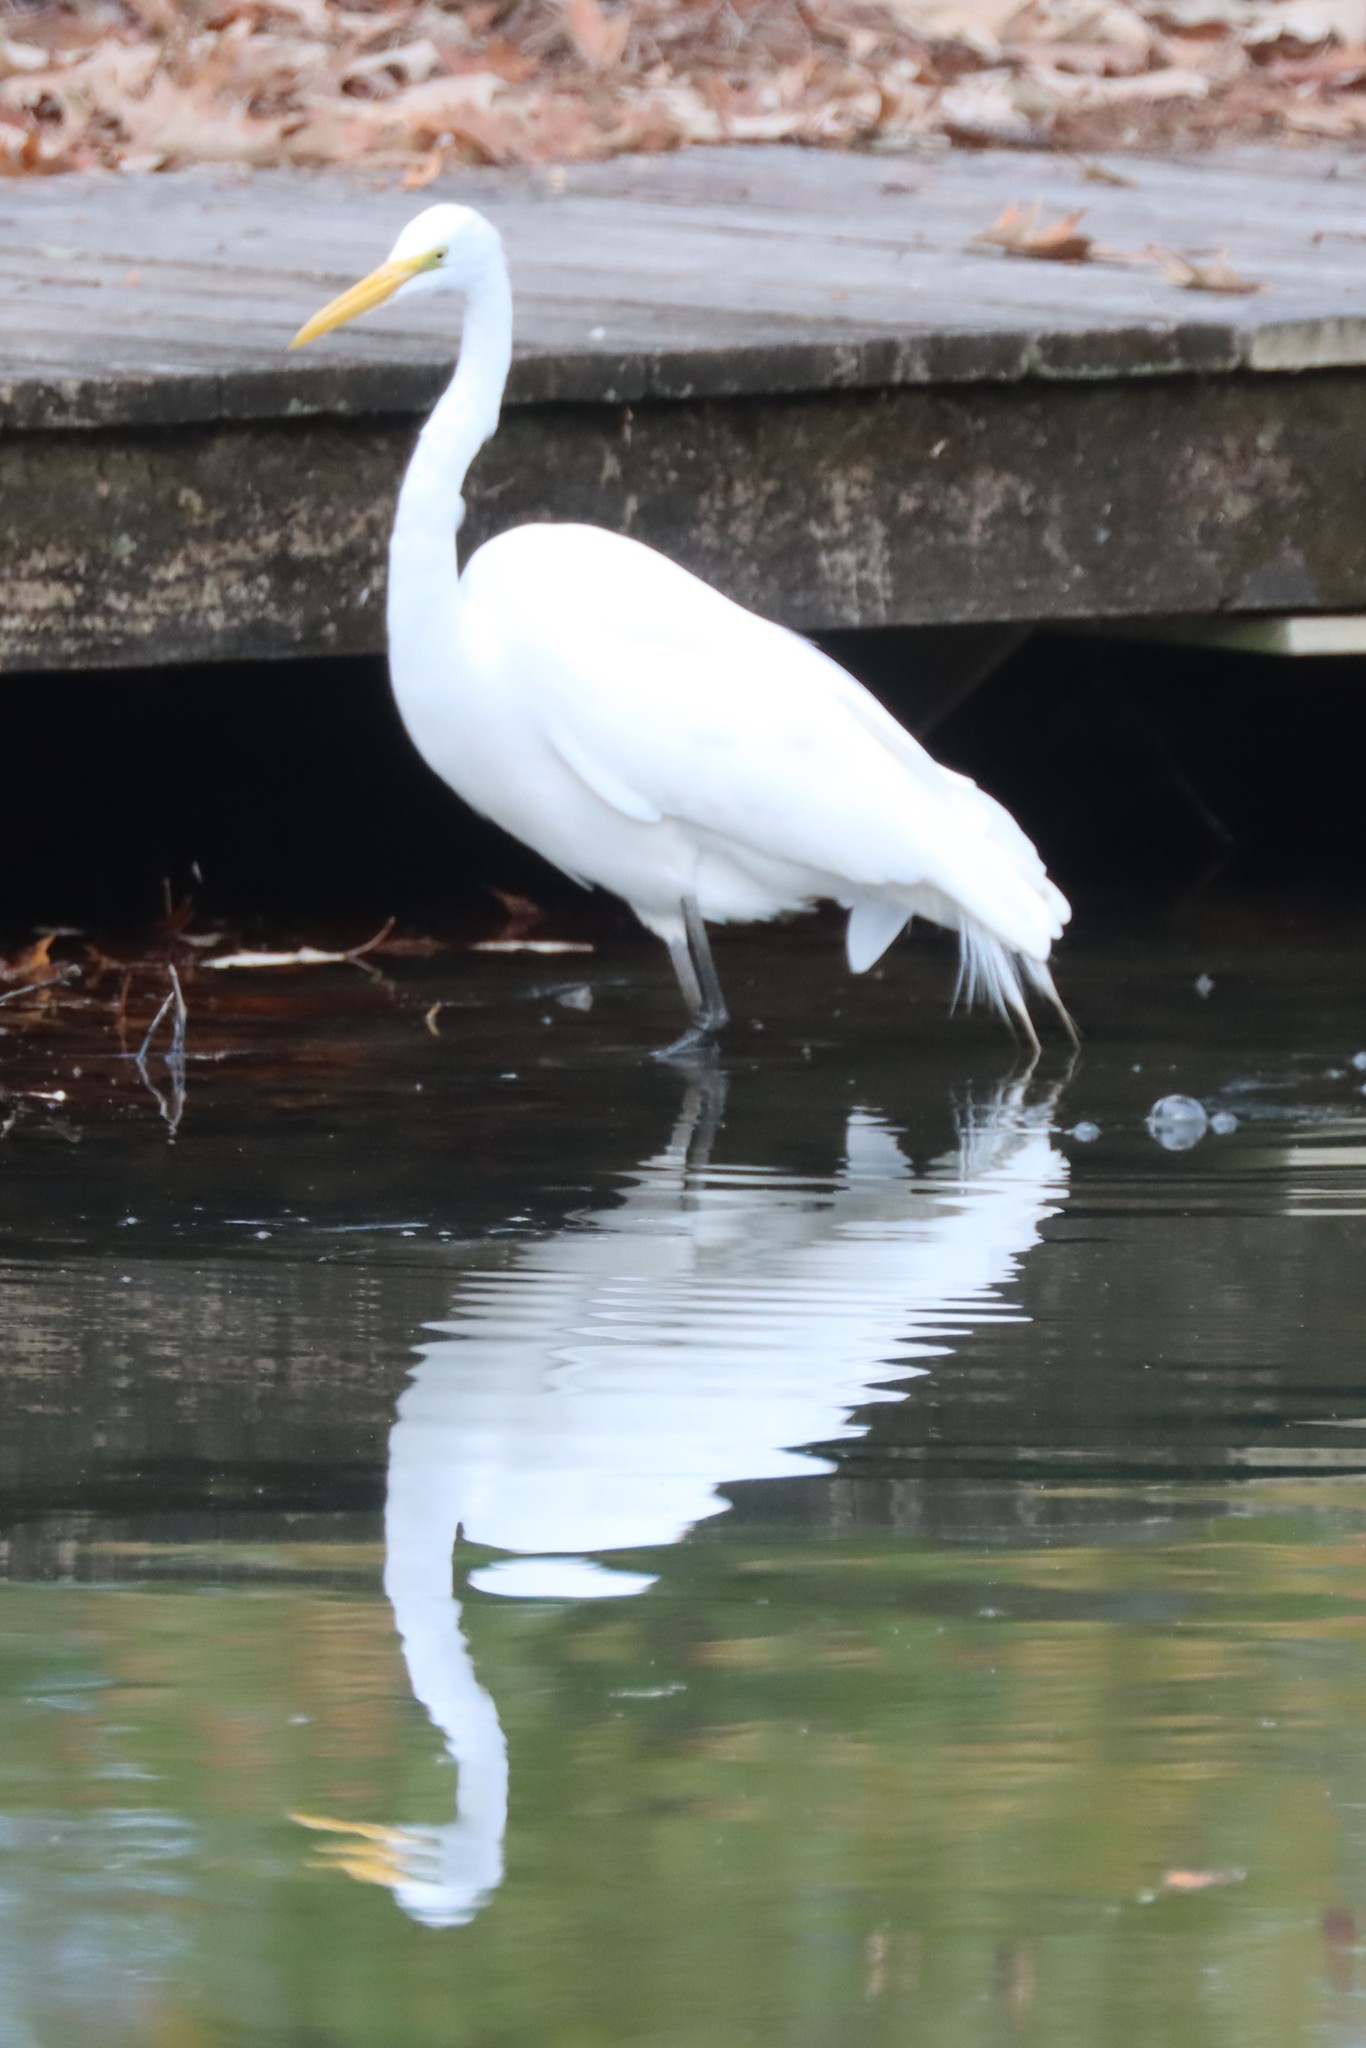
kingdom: Animalia
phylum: Chordata
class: Aves
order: Pelecaniformes
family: Ardeidae
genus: Ardea
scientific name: Ardea alba
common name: Great egret
